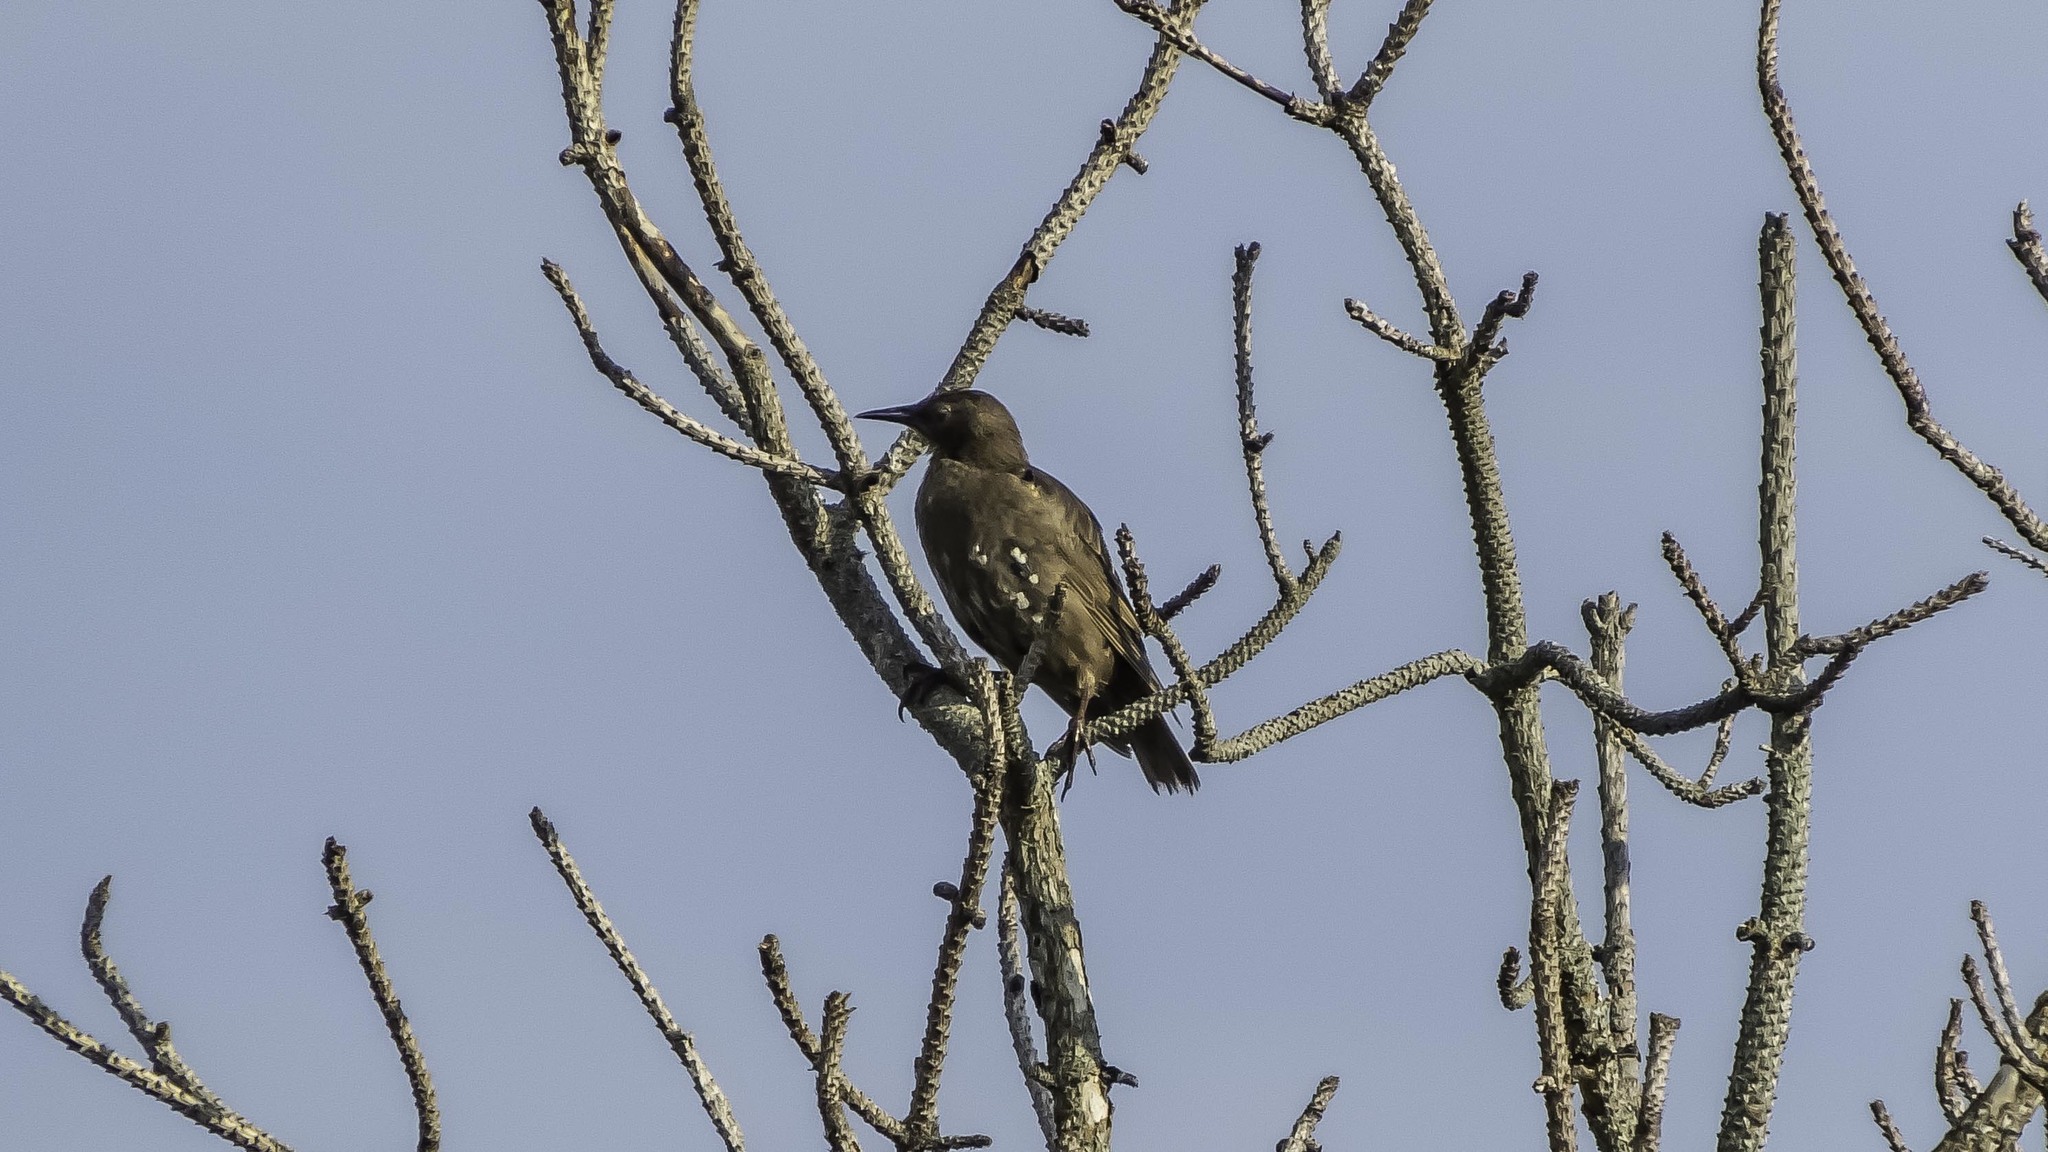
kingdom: Animalia
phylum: Chordata
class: Aves
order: Passeriformes
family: Sturnidae
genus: Sturnus
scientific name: Sturnus vulgaris
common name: Common starling
